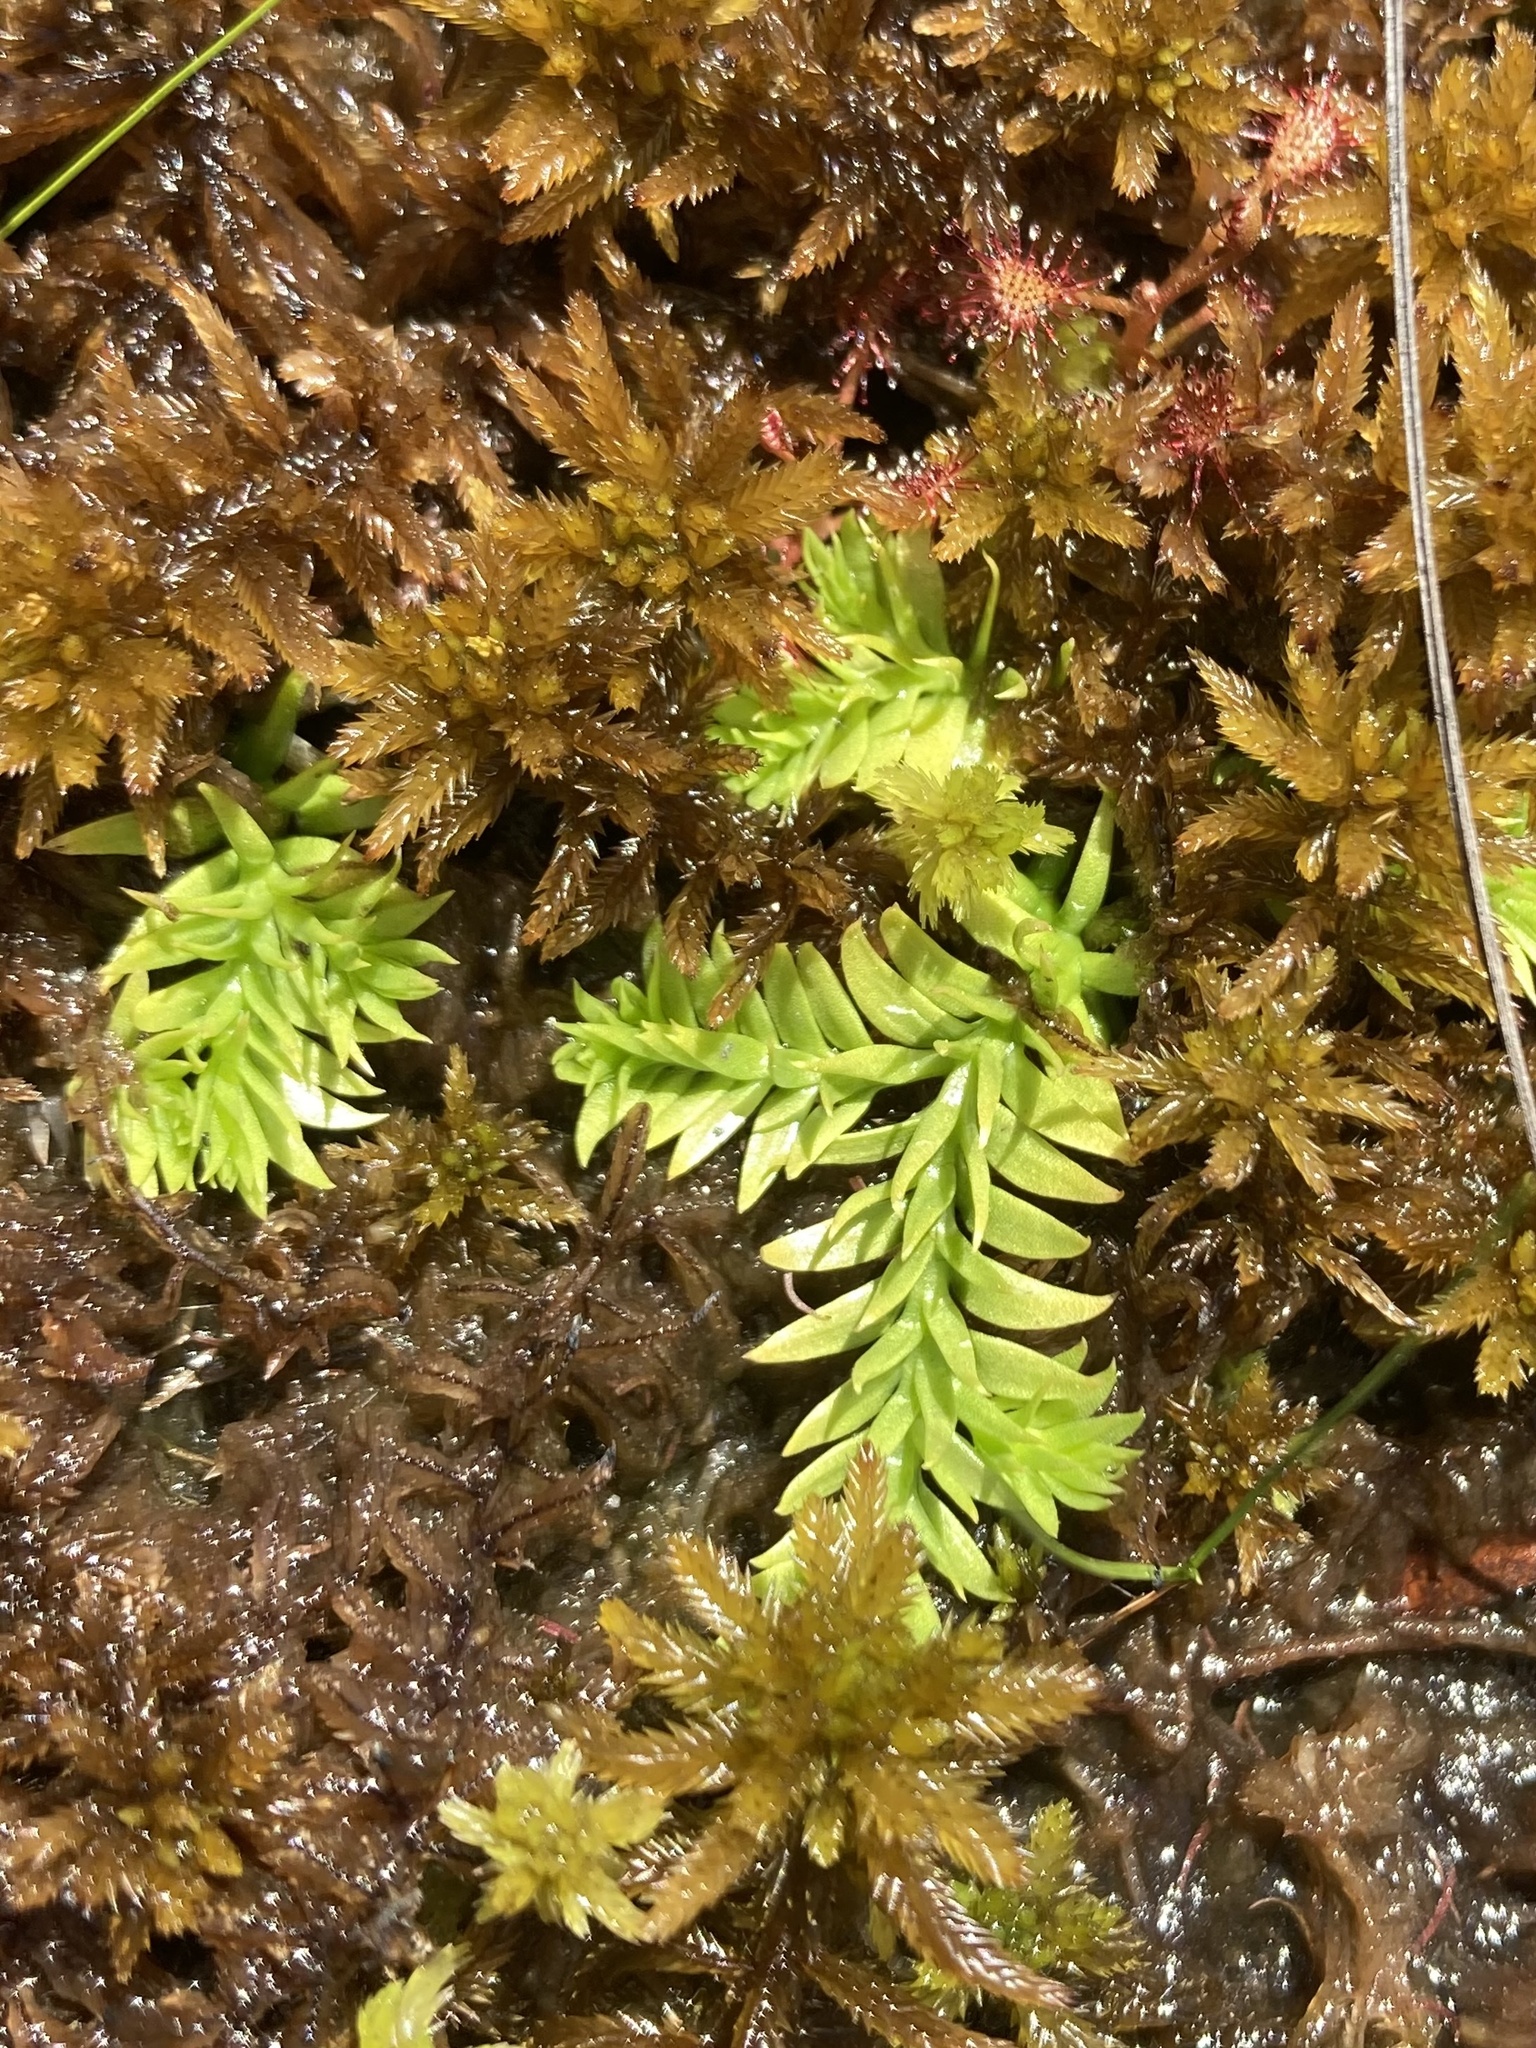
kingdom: Plantae
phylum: Tracheophyta
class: Lycopodiopsida
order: Lycopodiales
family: Lycopodiaceae
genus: Pseudolycopodiella
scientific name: Pseudolycopodiella caroliniana
